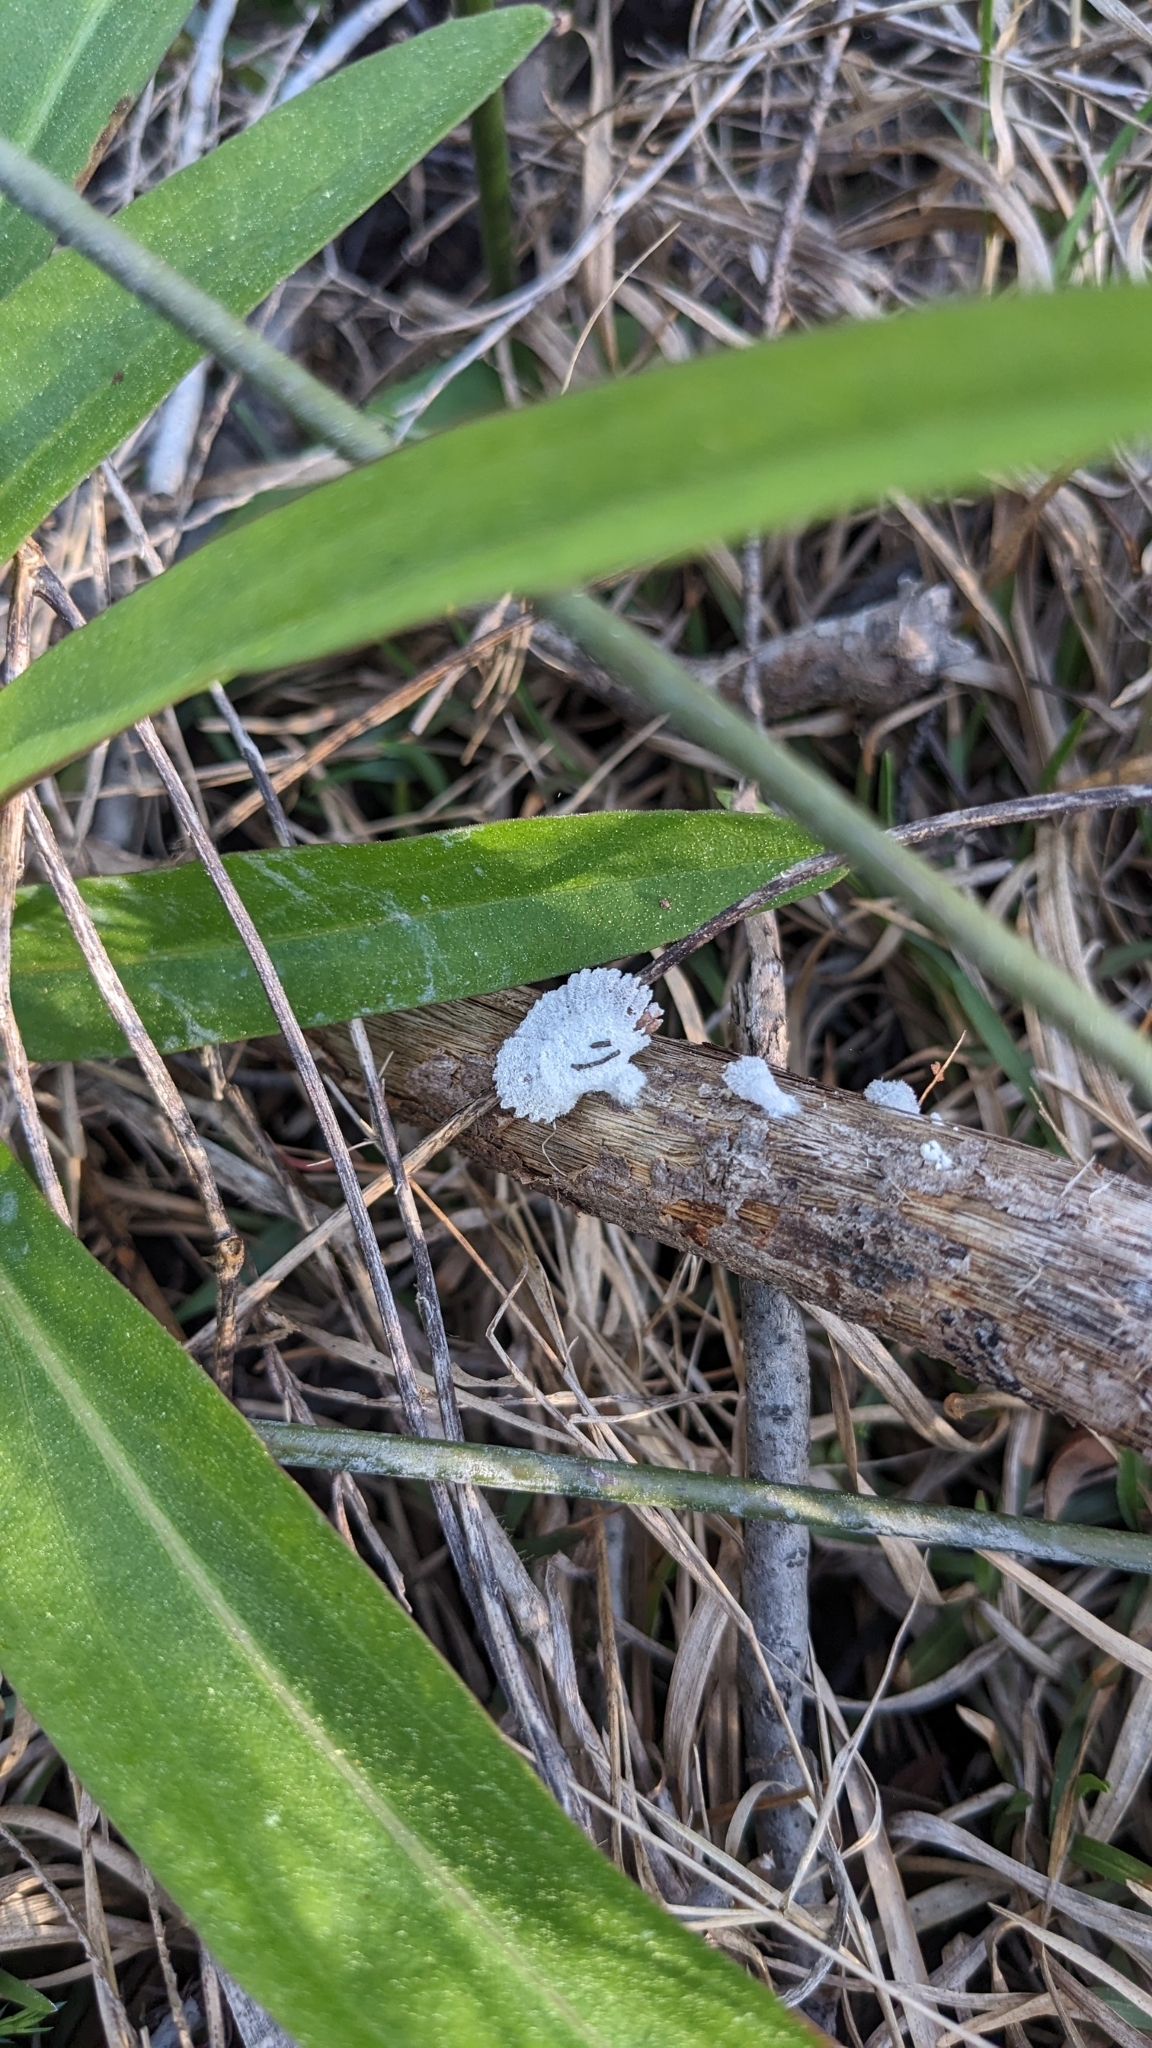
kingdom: Fungi
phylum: Basidiomycota
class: Agaricomycetes
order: Agaricales
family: Schizophyllaceae
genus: Schizophyllum
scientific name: Schizophyllum commune
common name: Common porecrust
